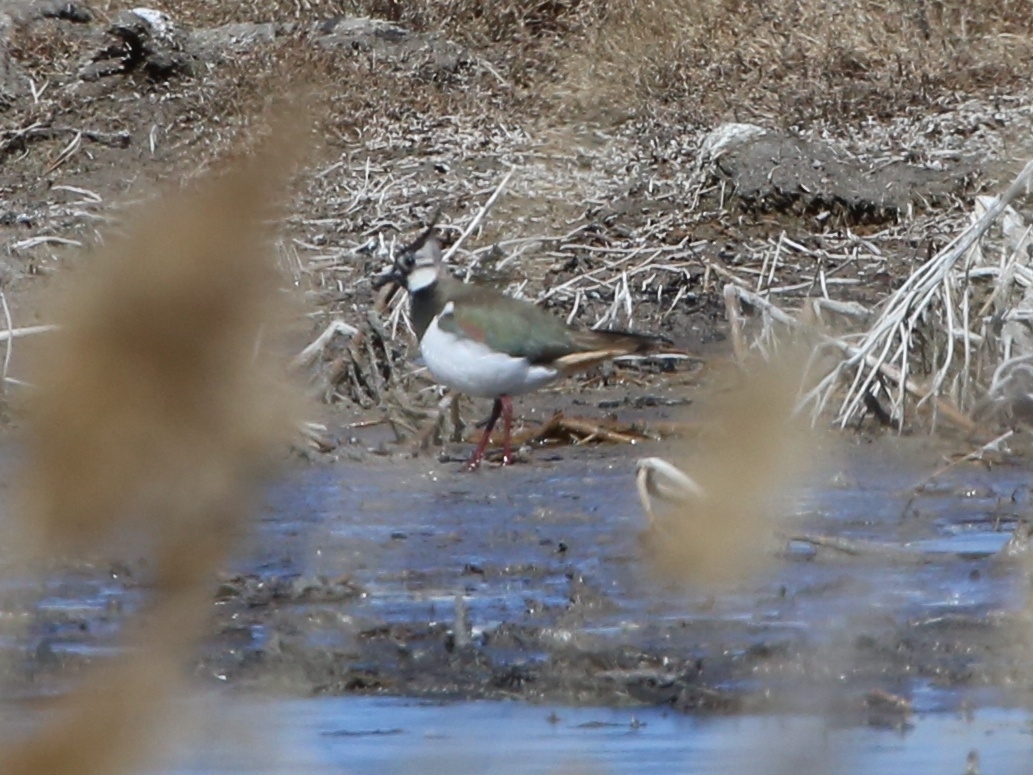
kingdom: Animalia
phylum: Chordata
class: Aves
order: Charadriiformes
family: Charadriidae
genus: Vanellus
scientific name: Vanellus vanellus
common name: Northern lapwing
